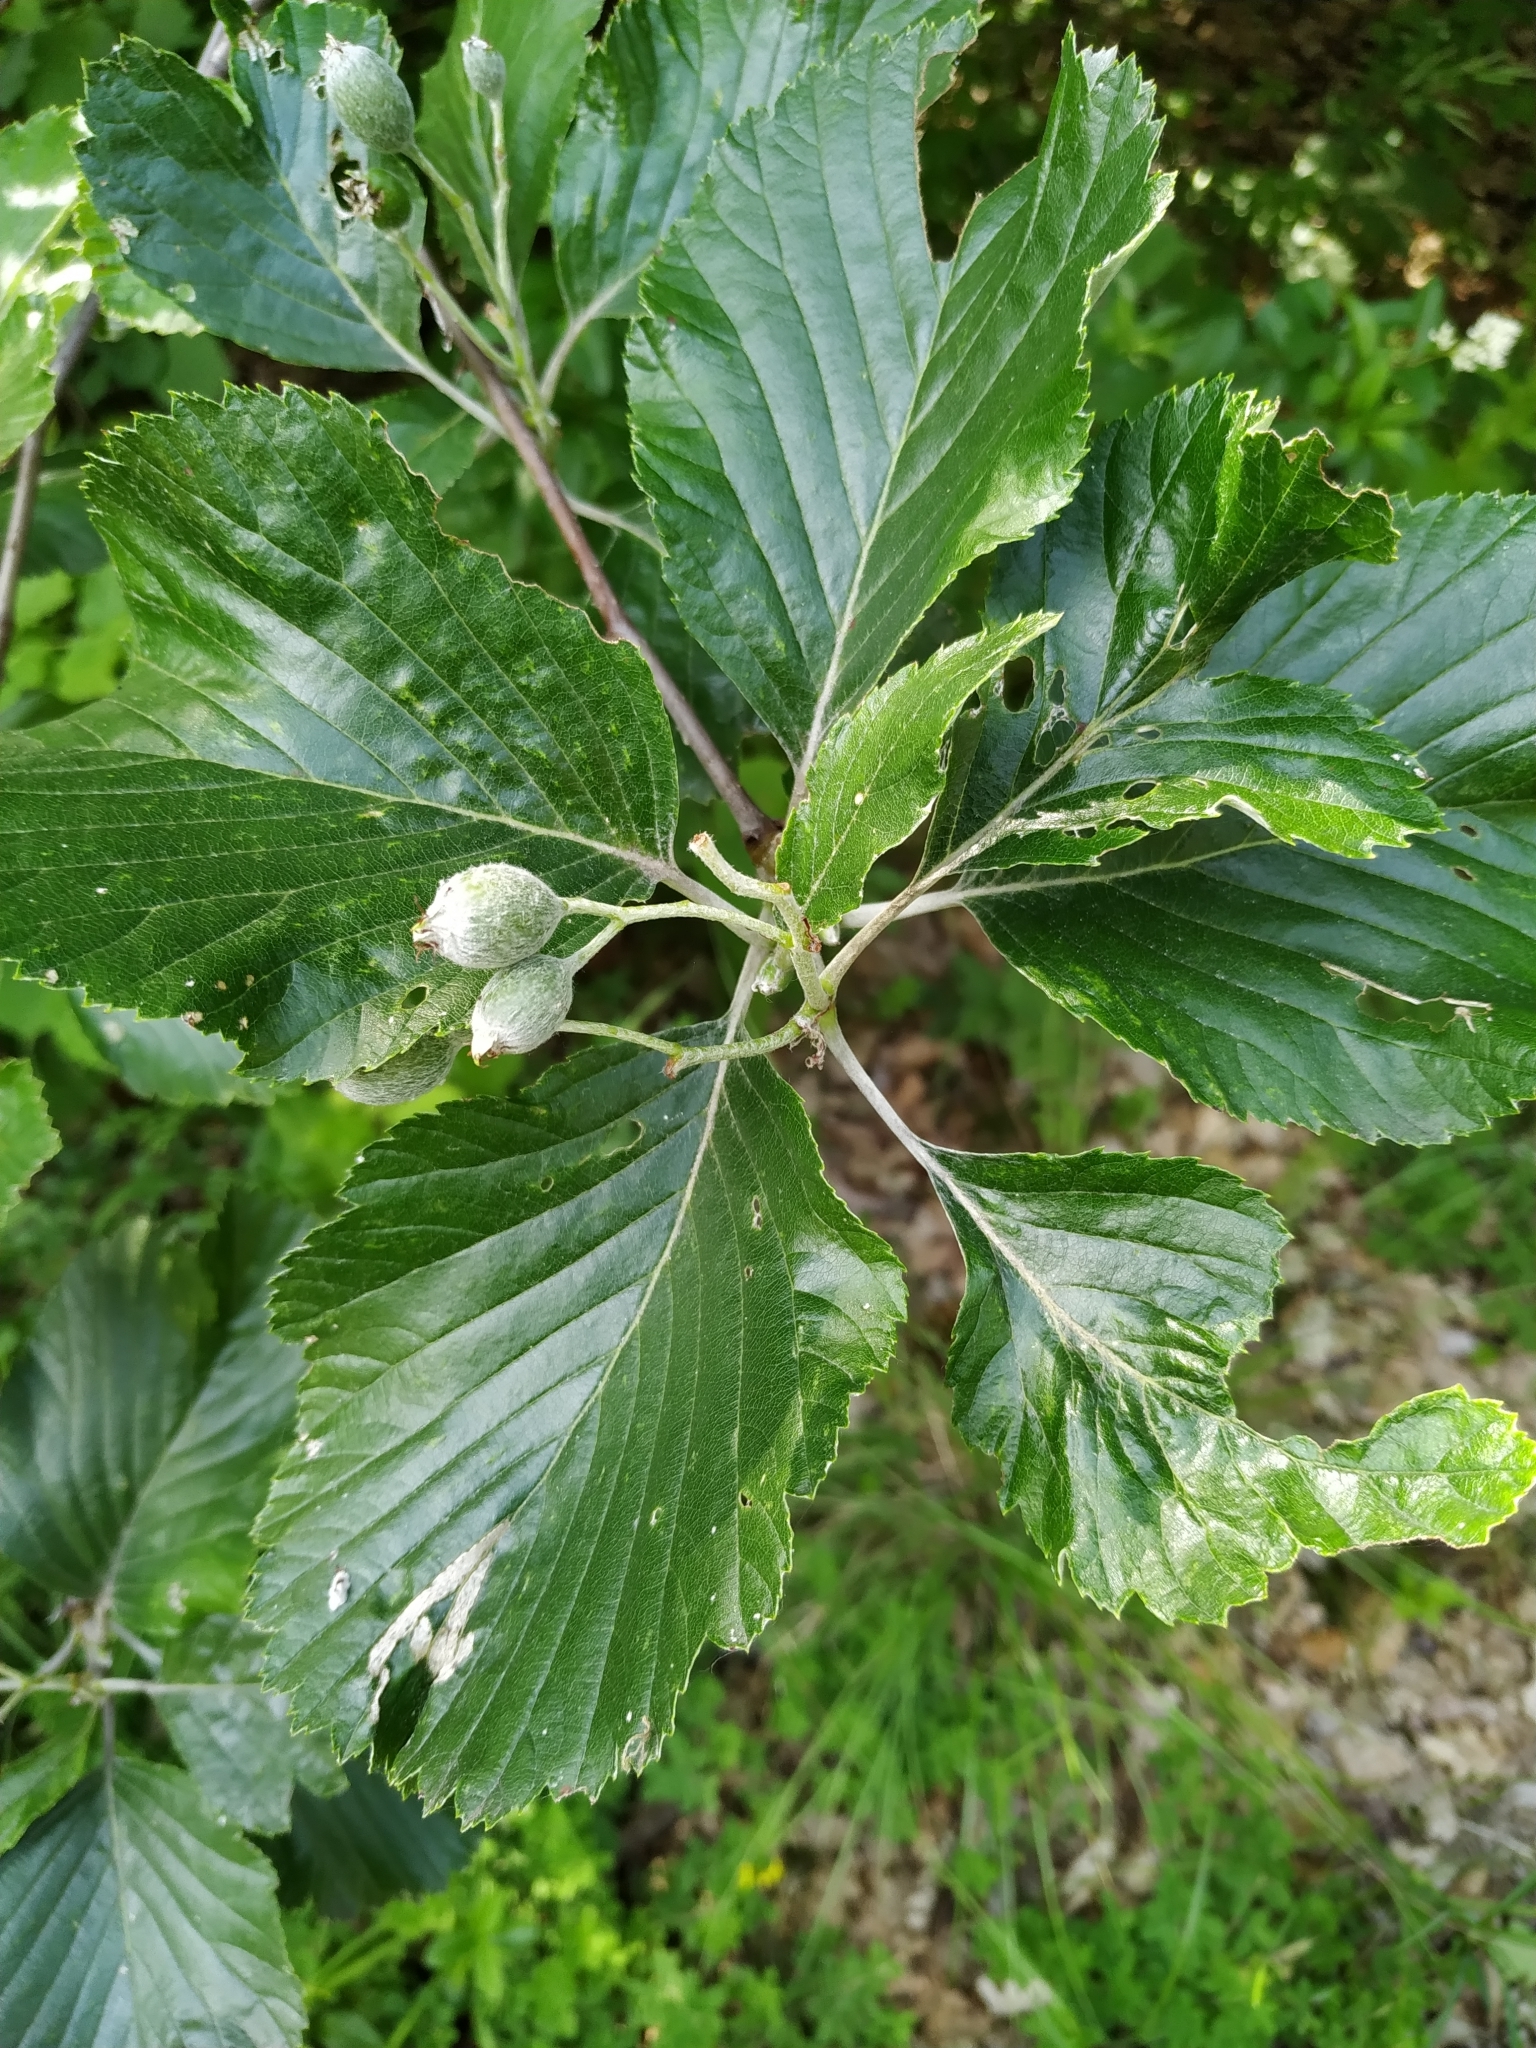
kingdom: Plantae
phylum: Tracheophyta
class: Magnoliopsida
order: Rosales
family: Rosaceae
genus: Aria
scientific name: Aria edulis
